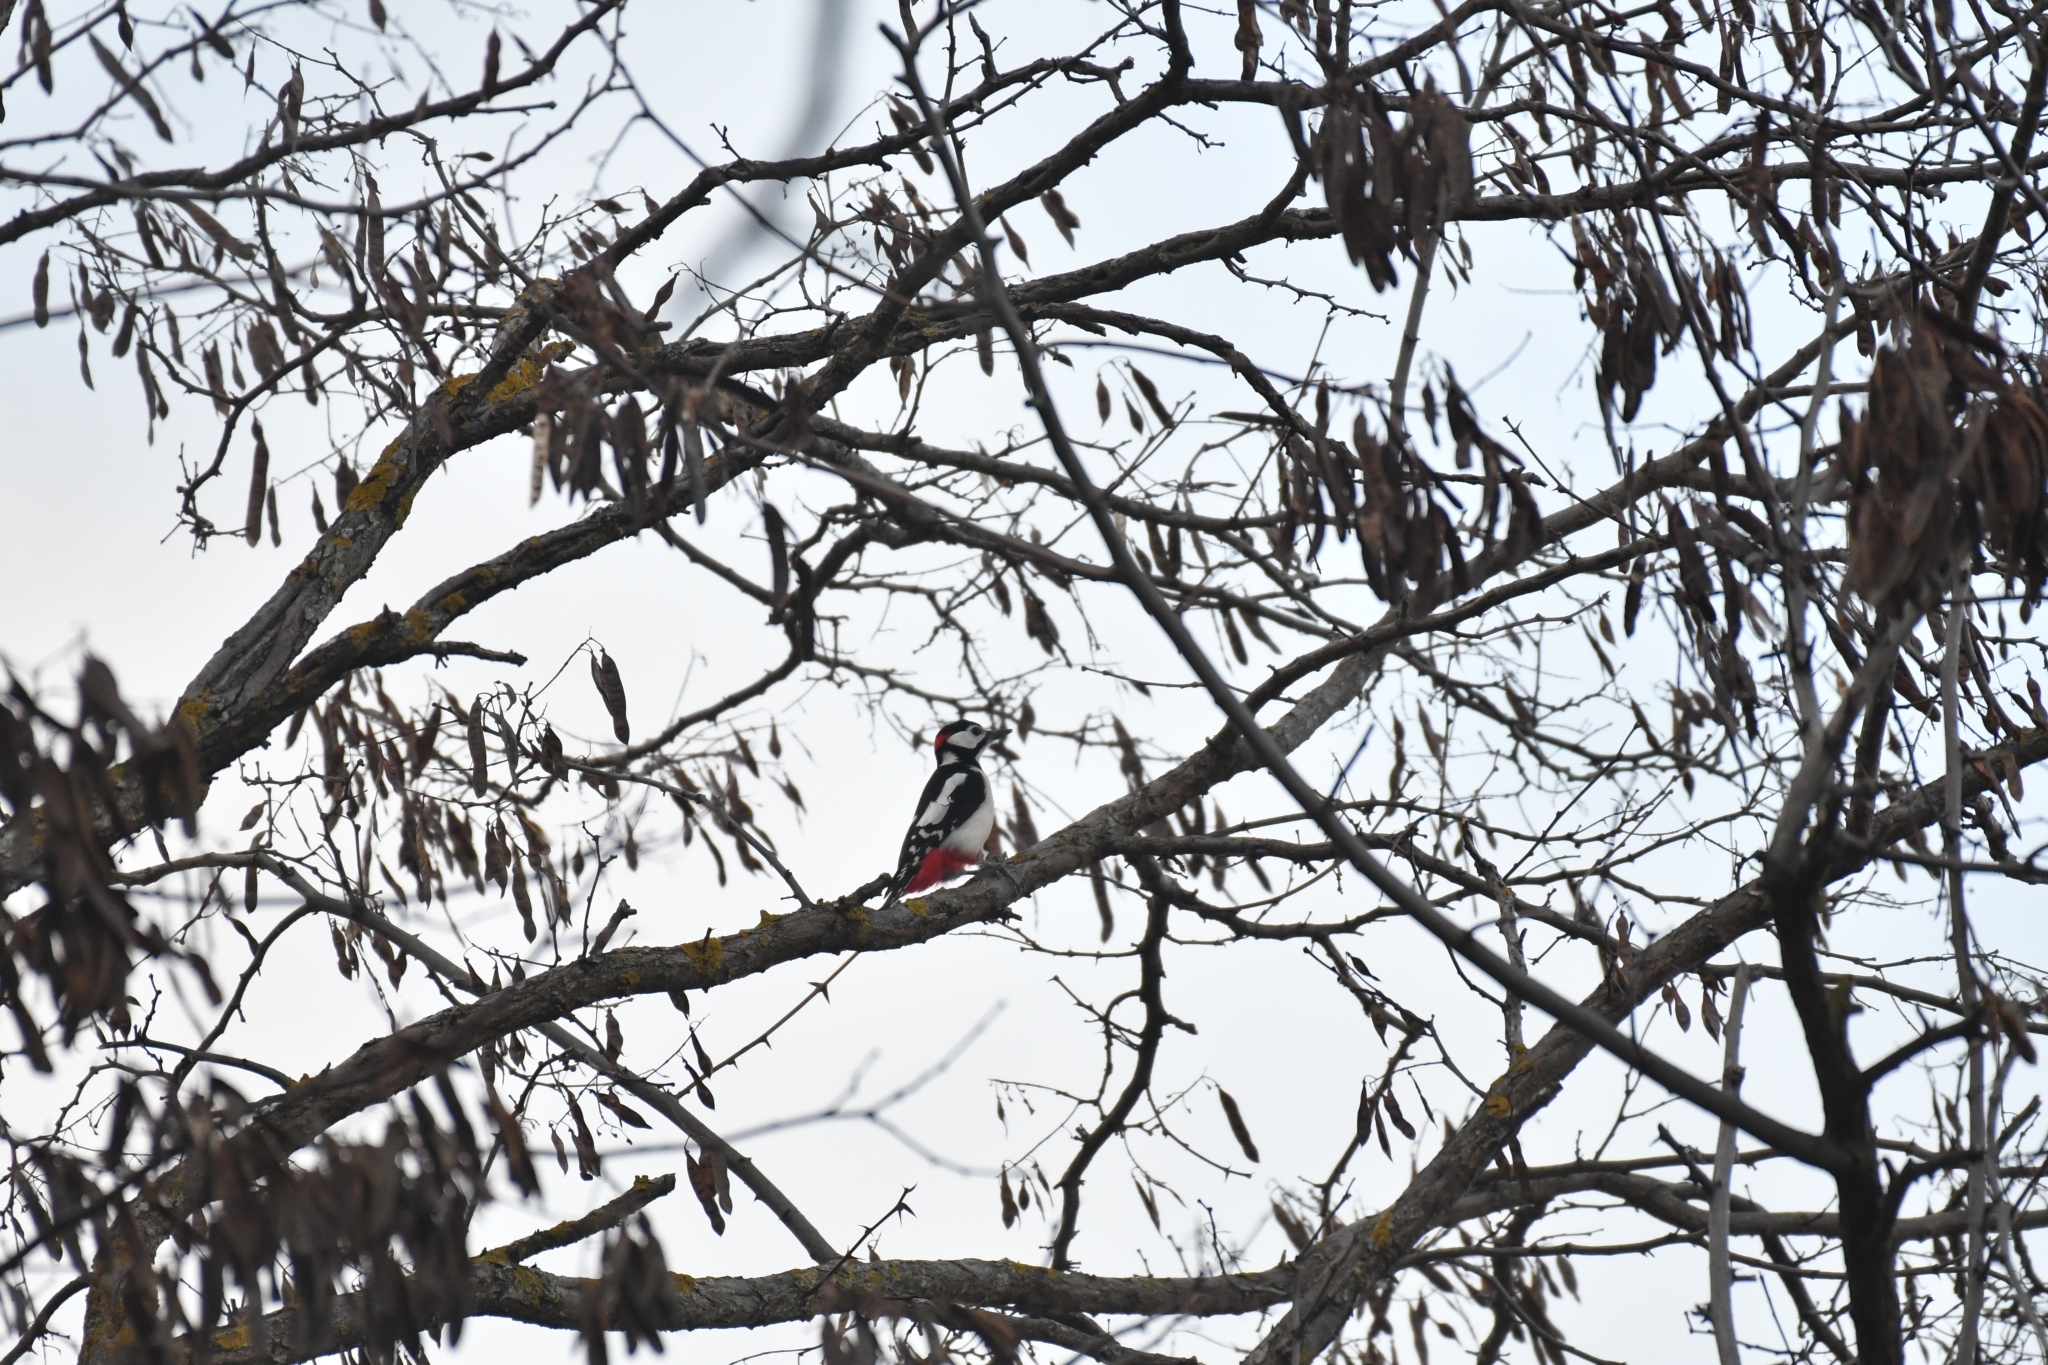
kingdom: Animalia
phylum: Chordata
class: Aves
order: Piciformes
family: Picidae
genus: Dendrocopos
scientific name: Dendrocopos major
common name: Great spotted woodpecker
